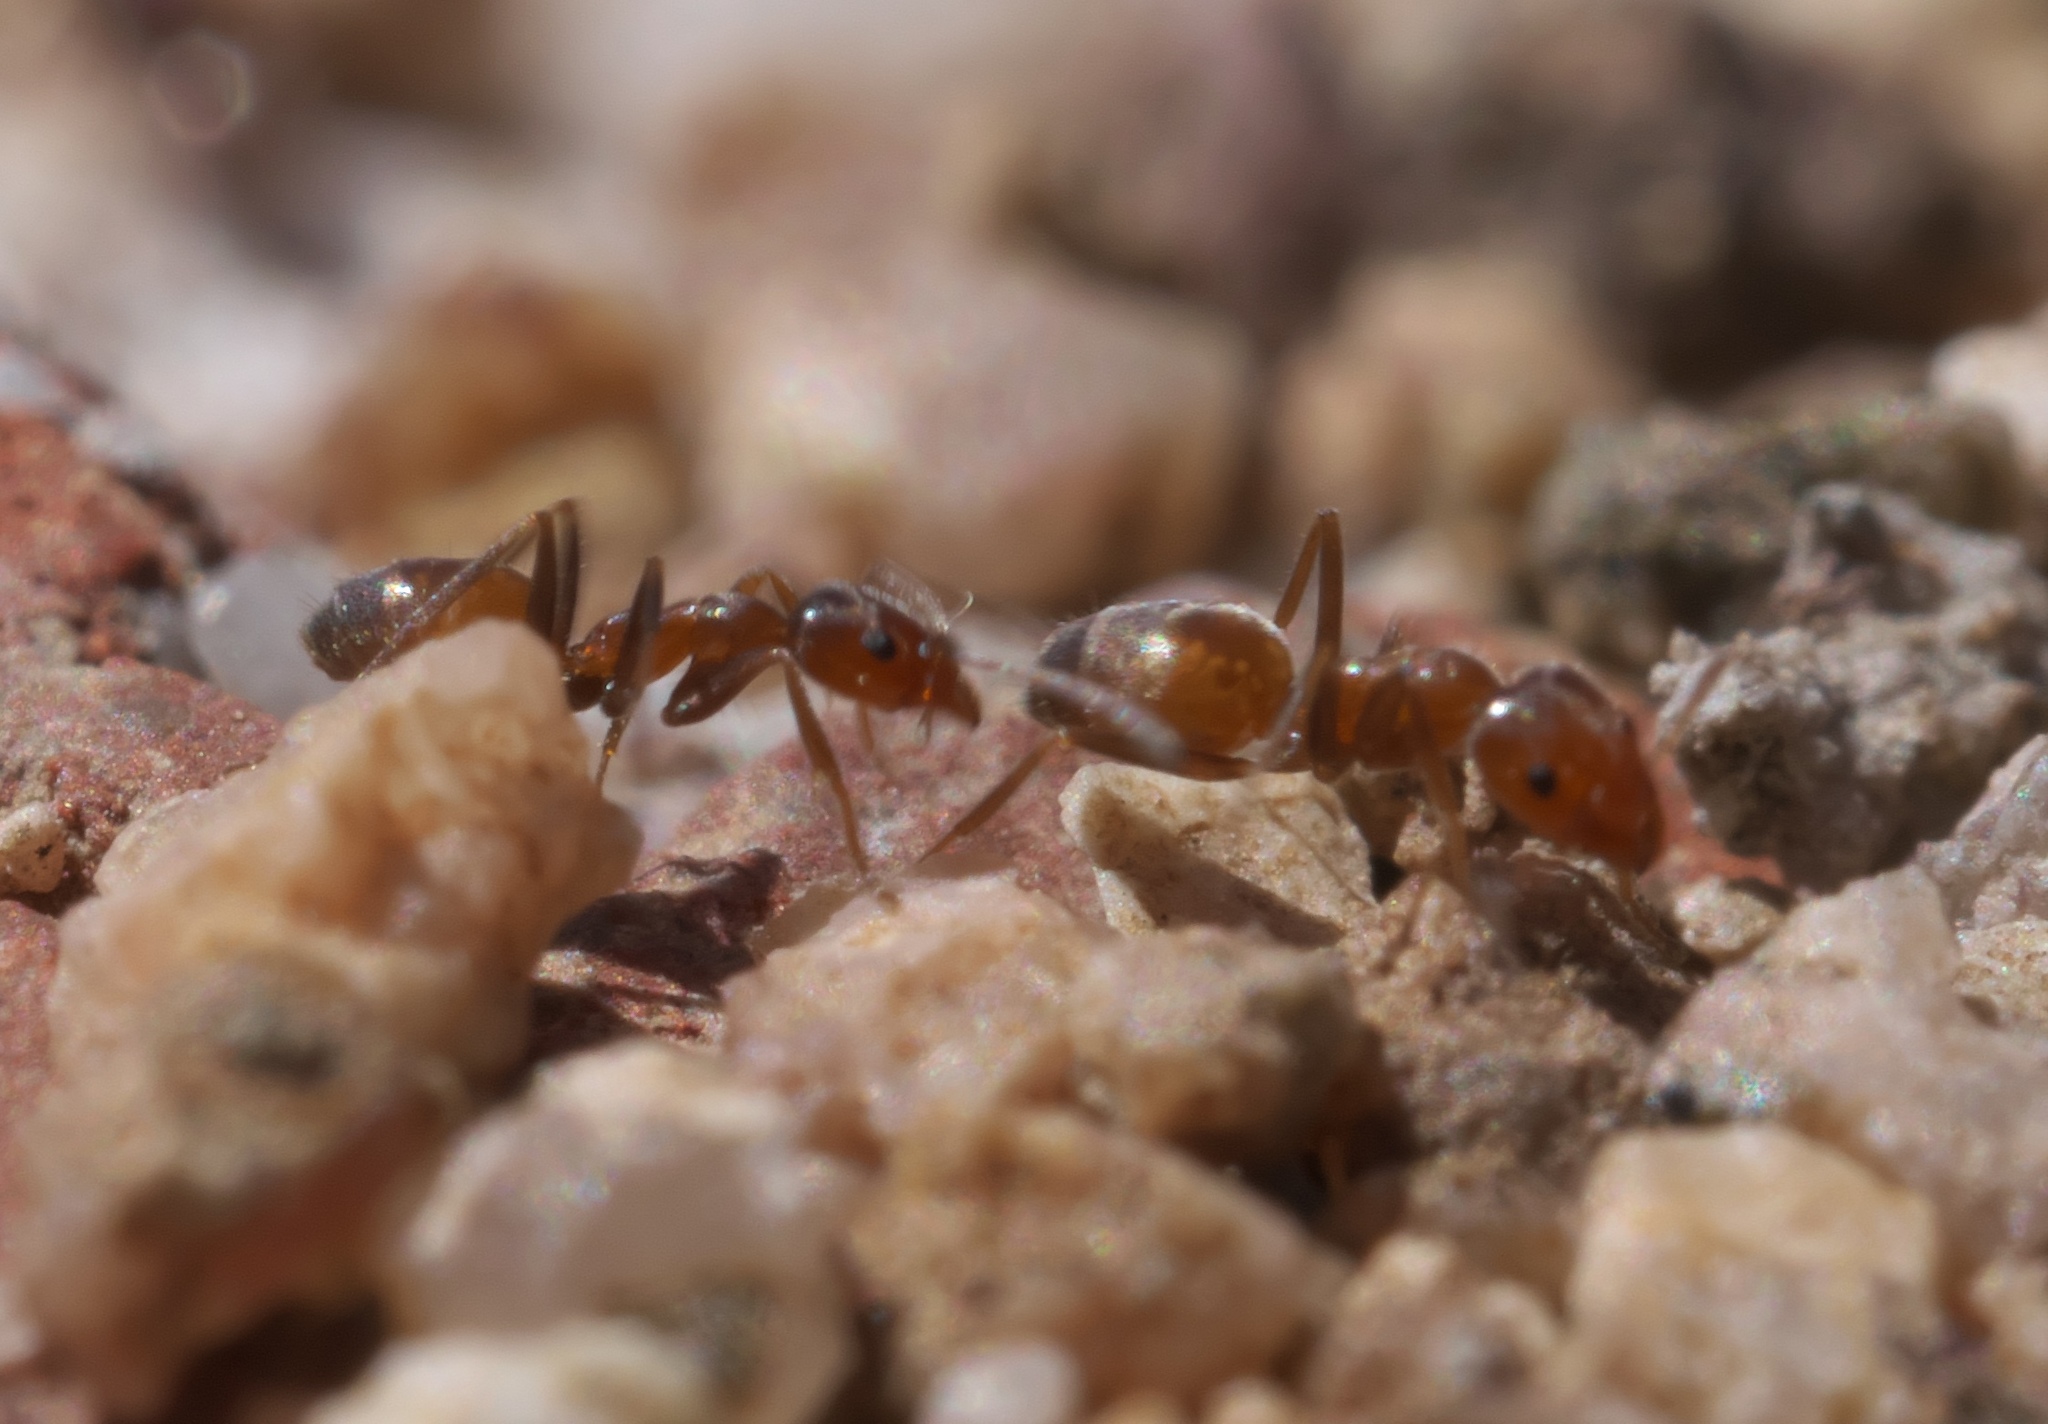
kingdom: Animalia
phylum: Arthropoda
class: Insecta
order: Hymenoptera
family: Formicidae
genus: Forelius
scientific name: Forelius
